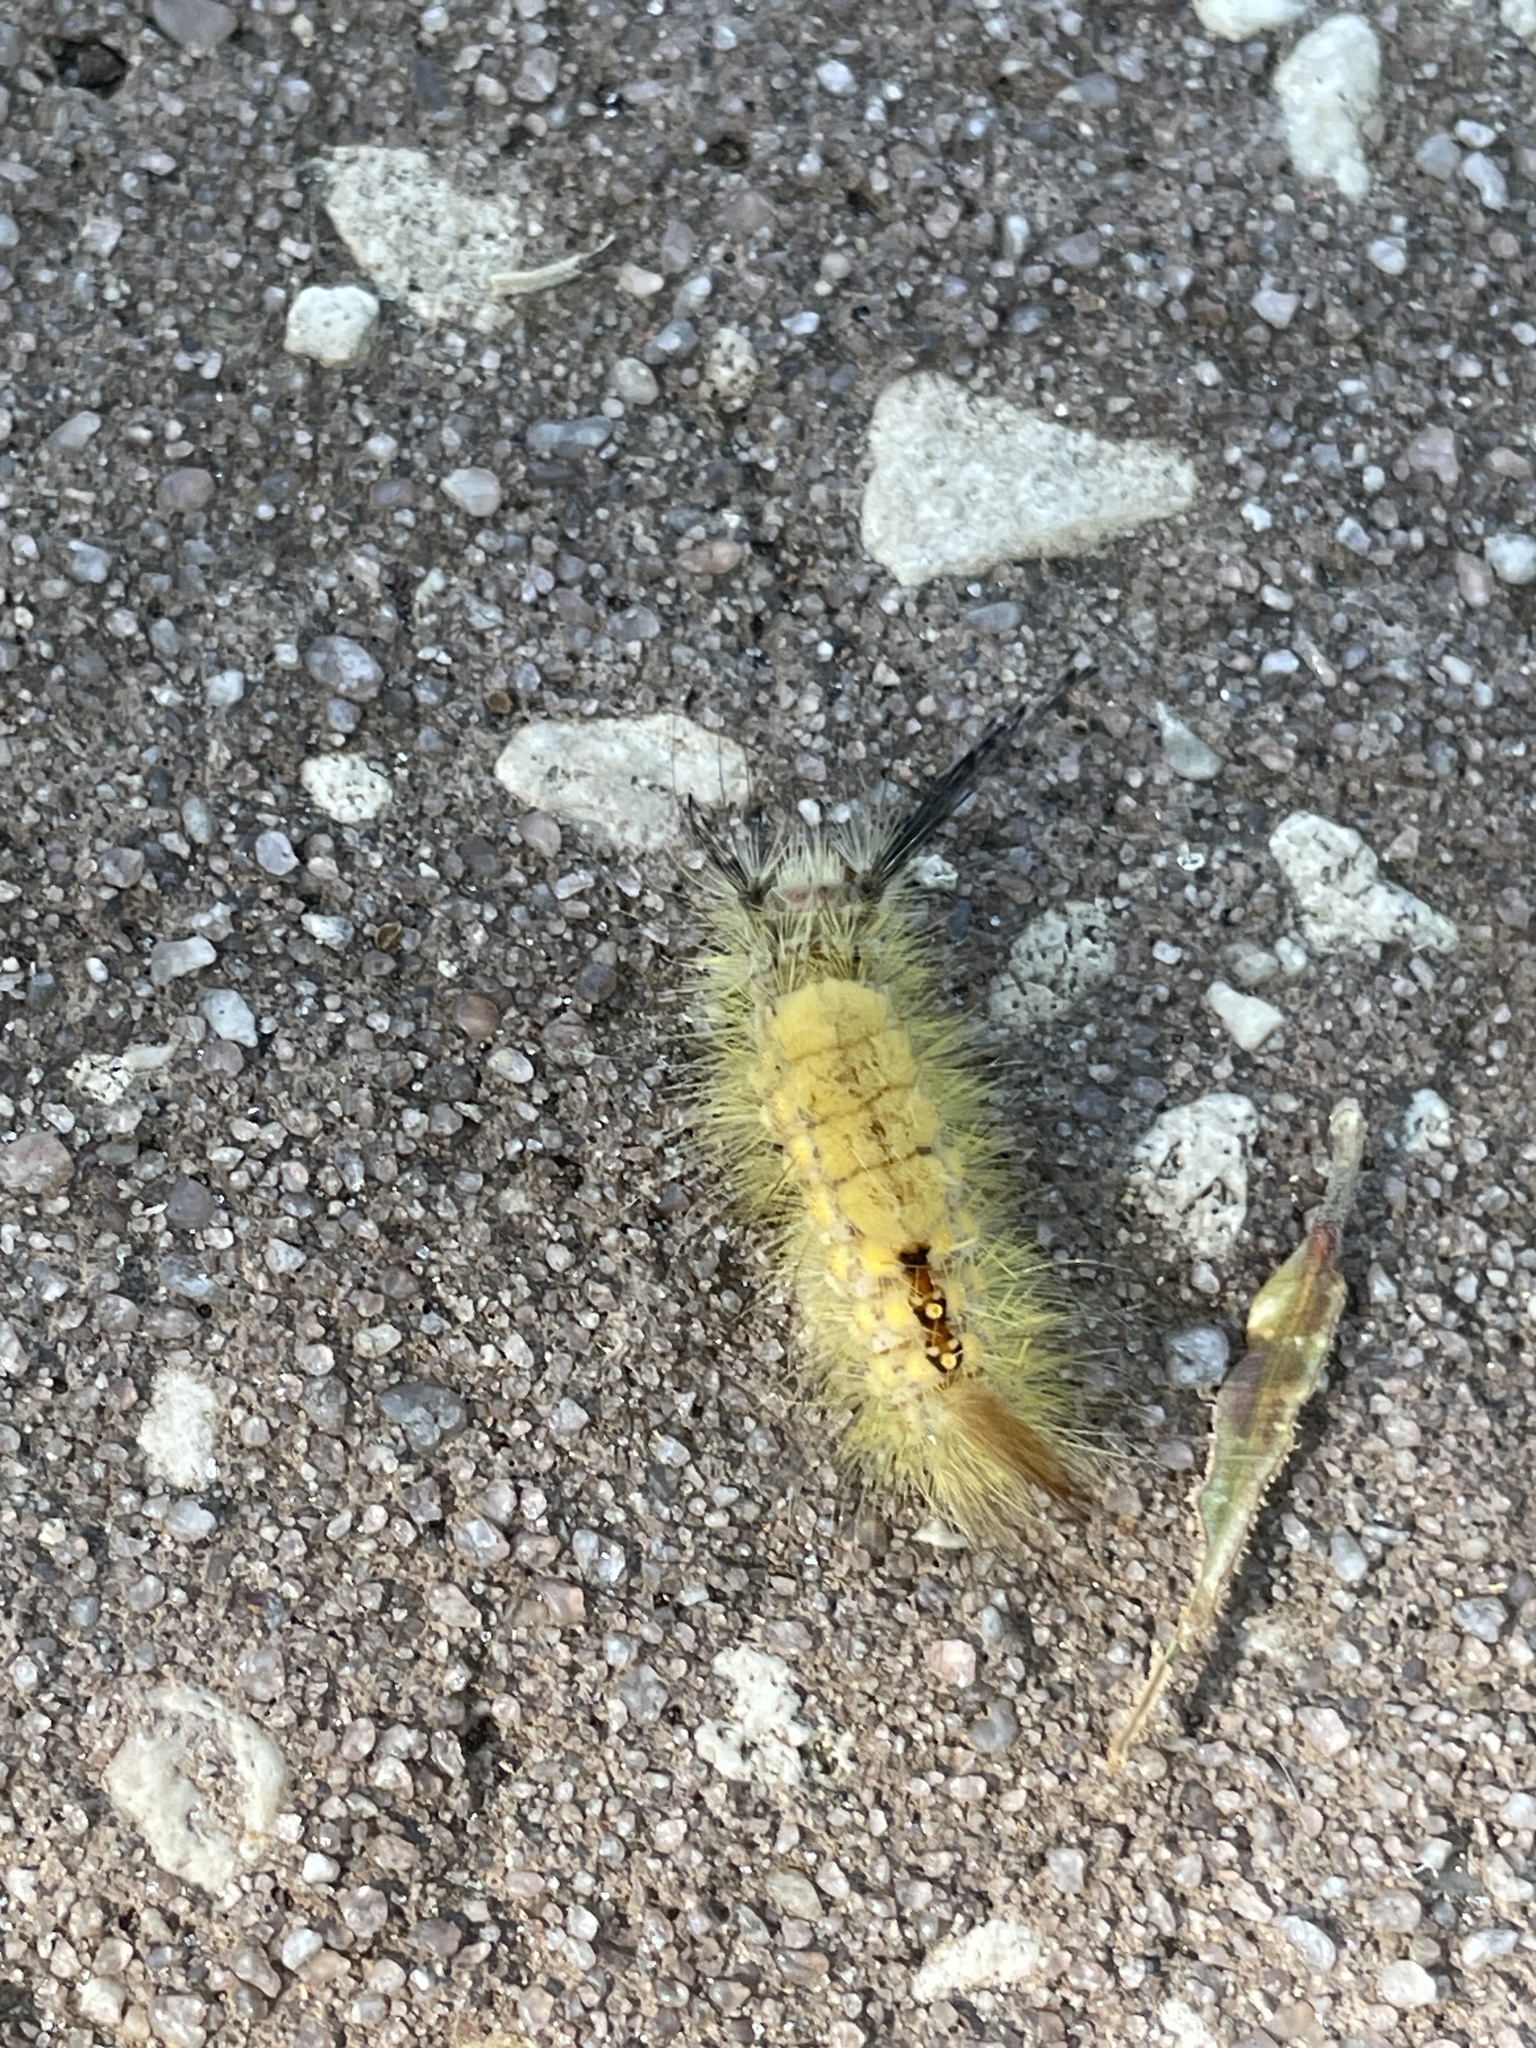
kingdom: Animalia
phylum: Arthropoda
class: Insecta
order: Lepidoptera
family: Erebidae
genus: Orgyia
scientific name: Orgyia detrita
